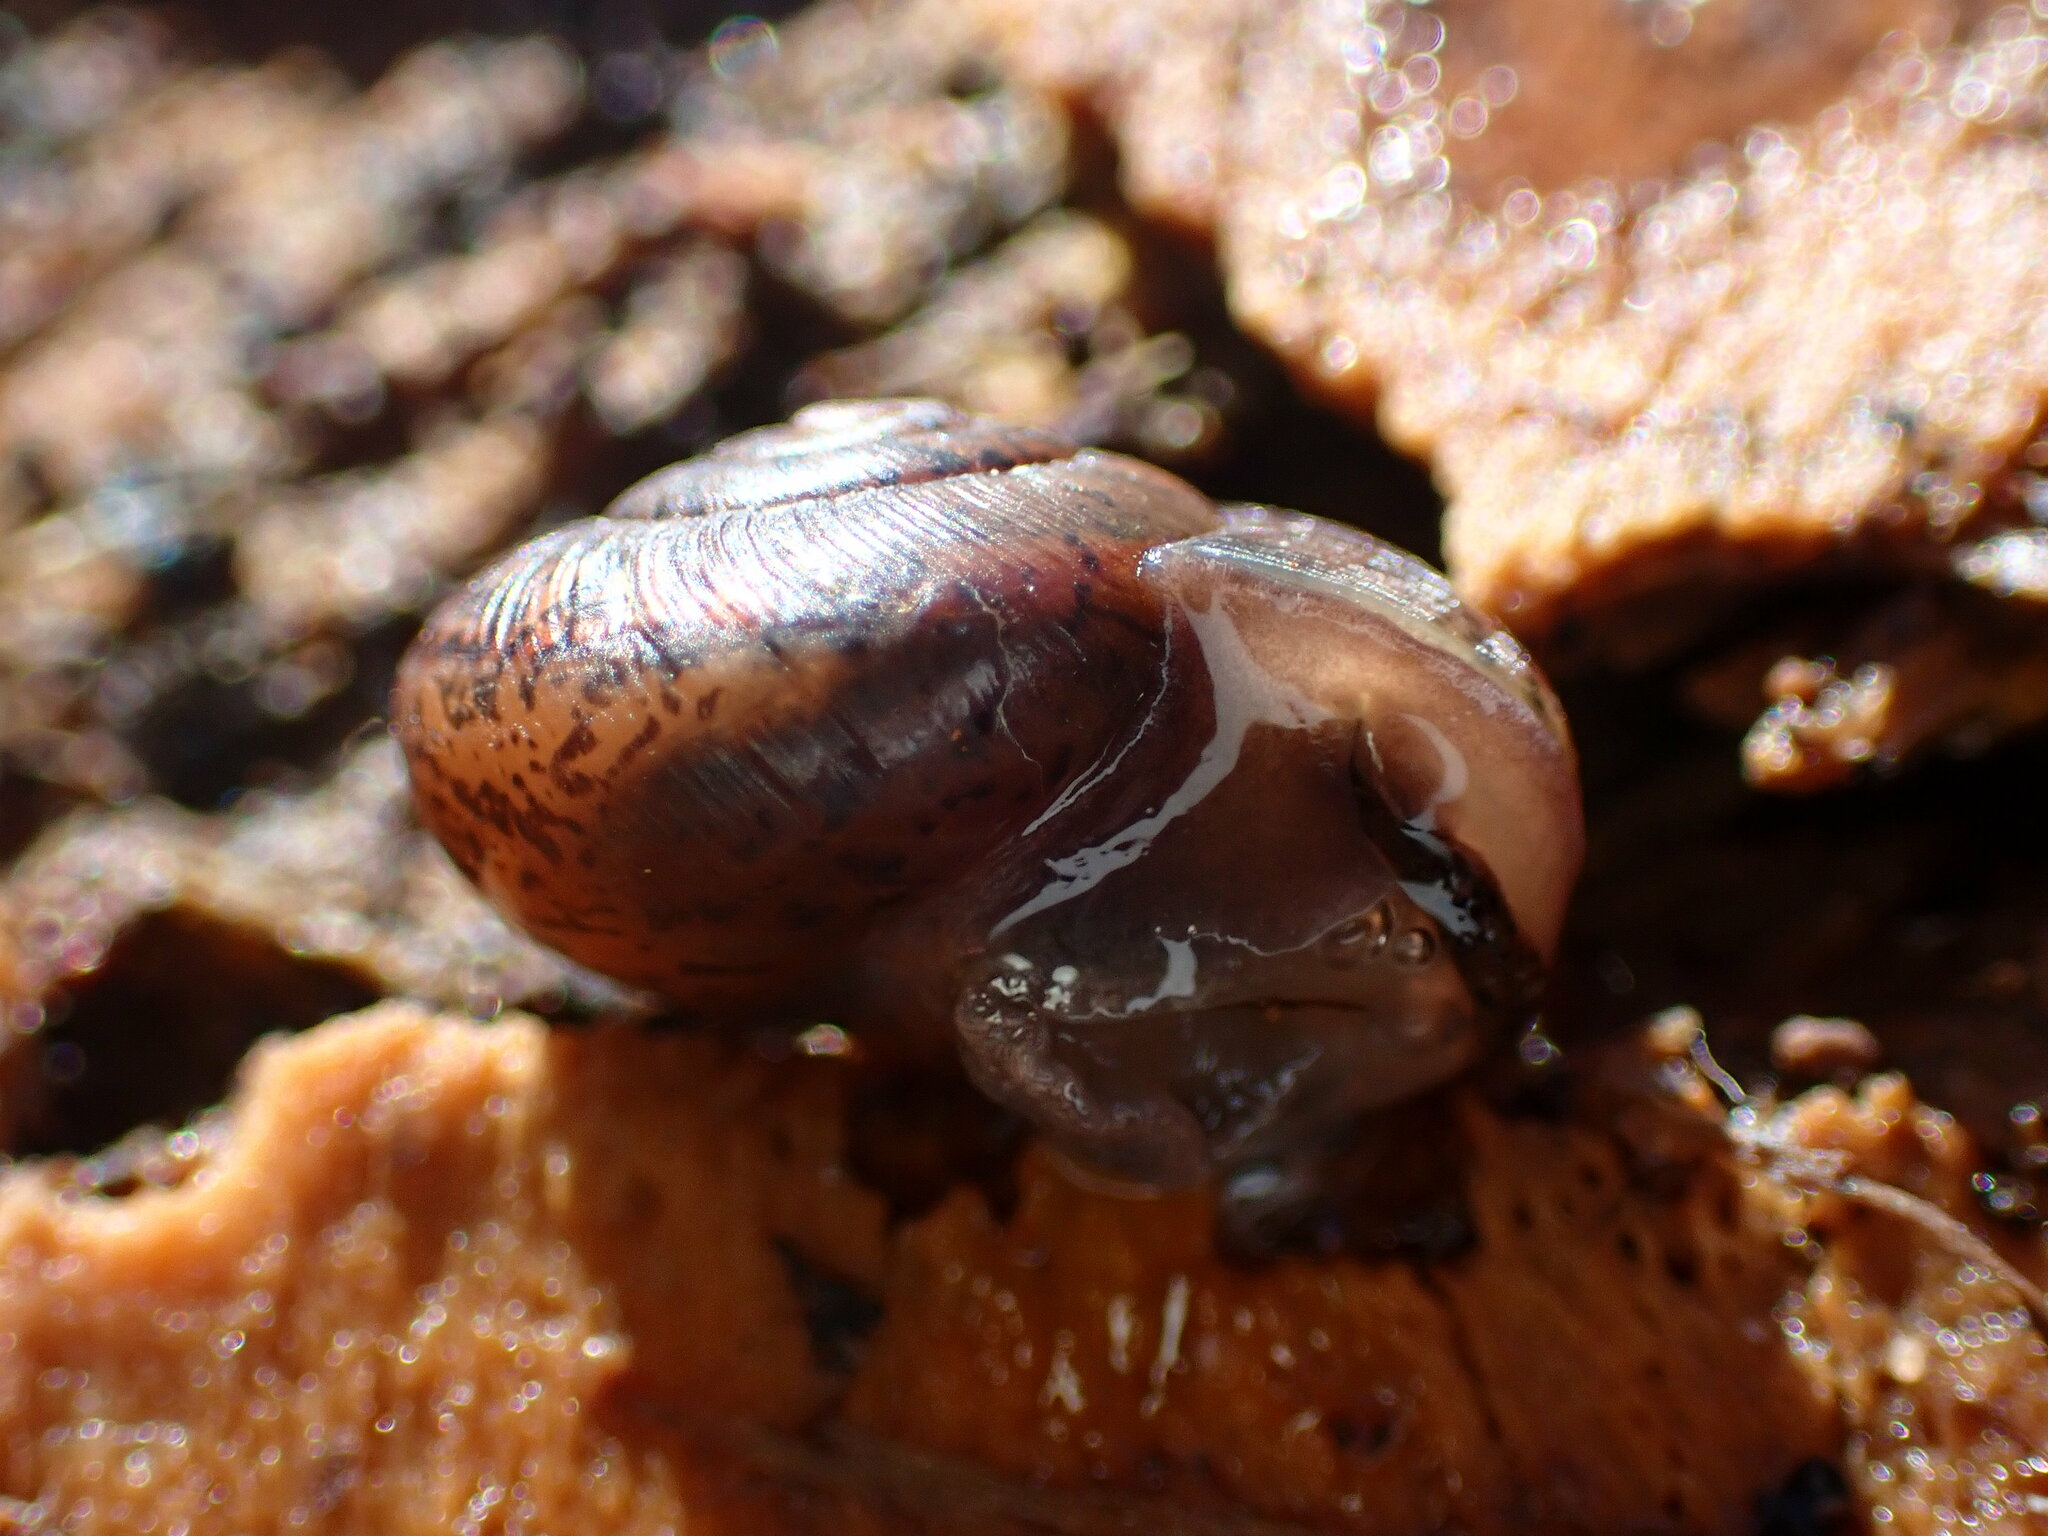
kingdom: Animalia
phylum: Mollusca
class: Gastropoda
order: Stylommatophora
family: Xanthonychidae
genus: Helminthoglypta
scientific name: Helminthoglypta cypreophila
